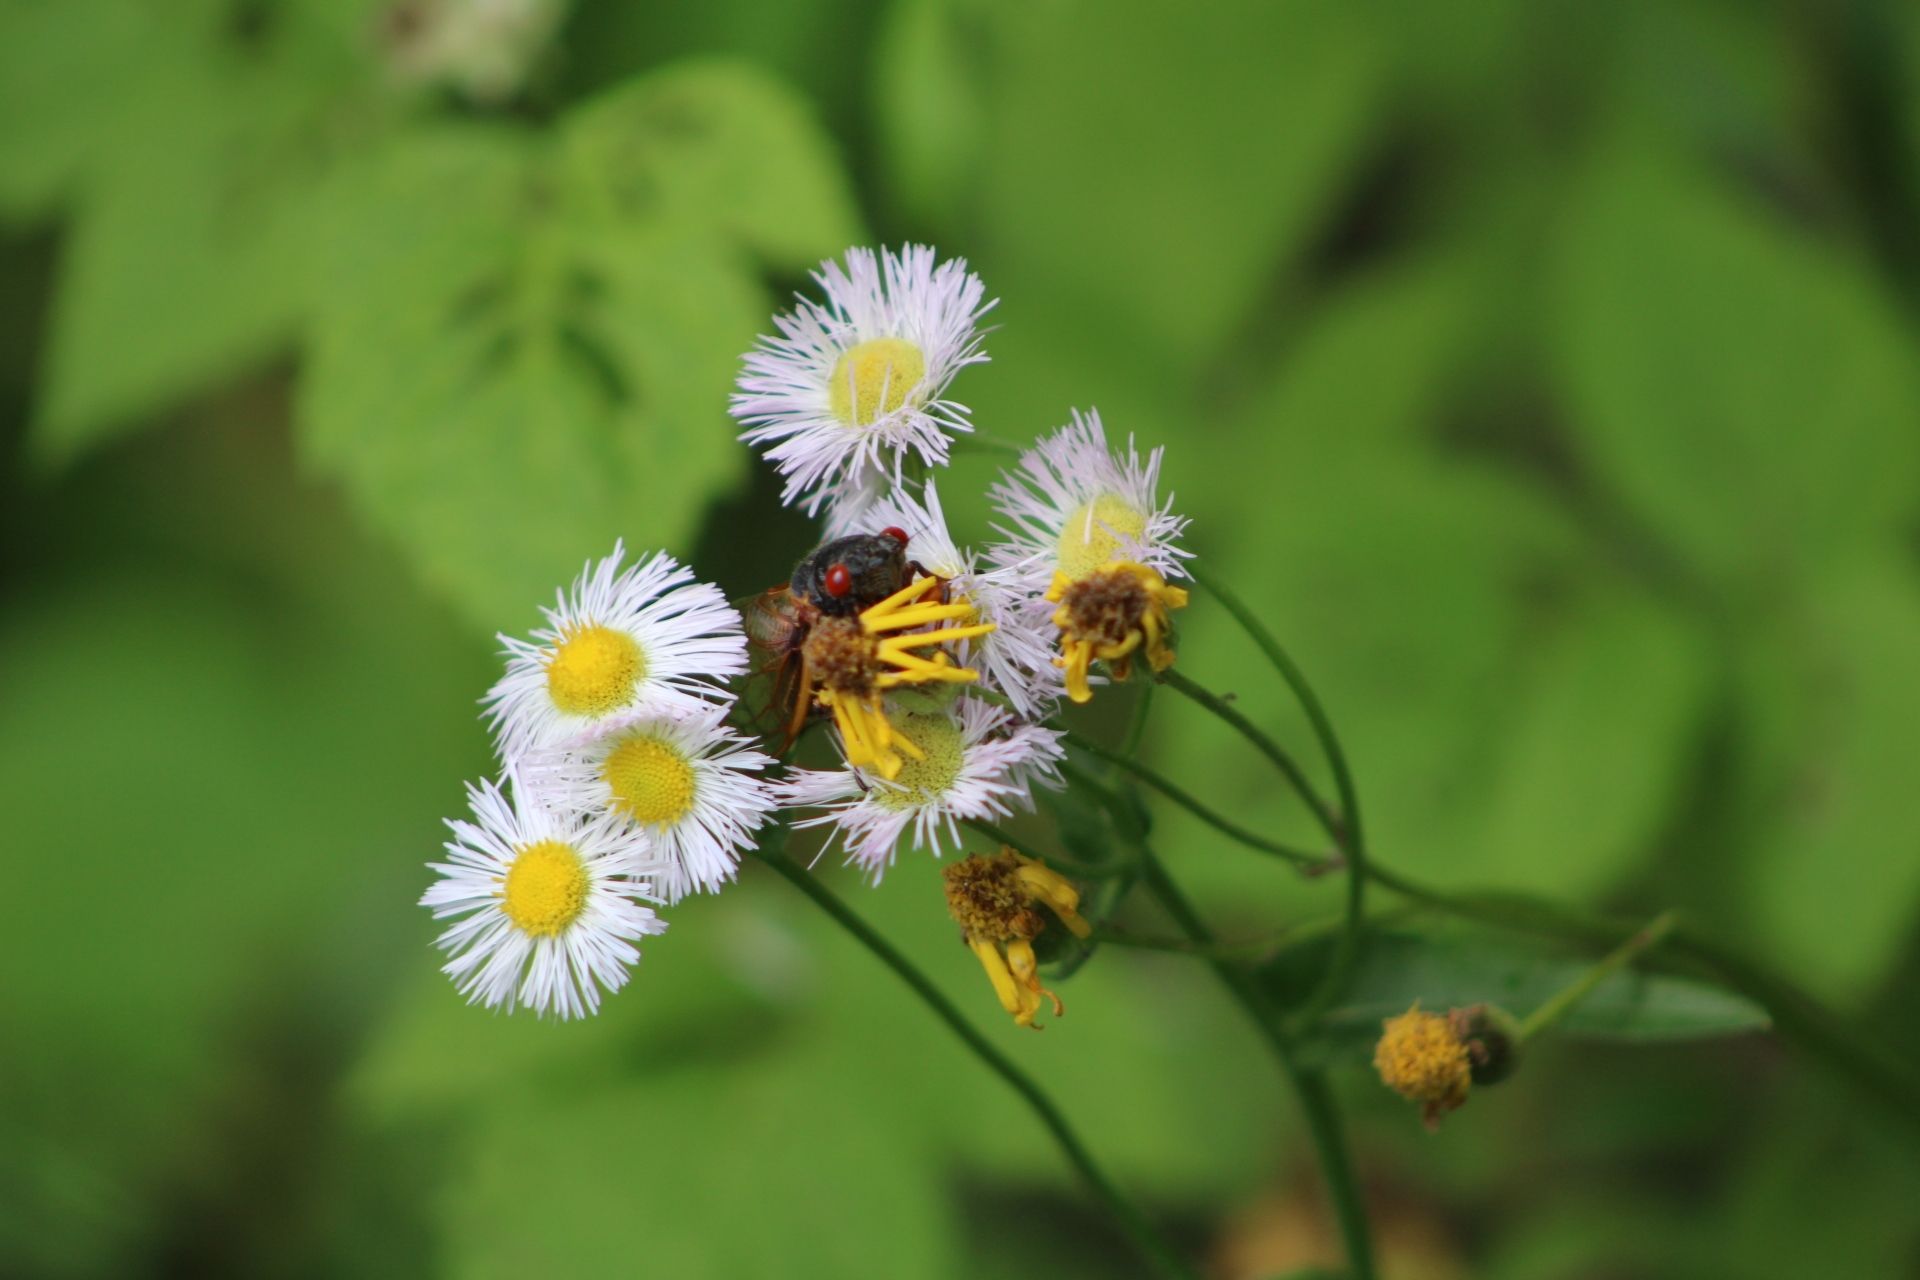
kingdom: Animalia
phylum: Arthropoda
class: Insecta
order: Hemiptera
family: Cicadidae
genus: Magicicada
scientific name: Magicicada
